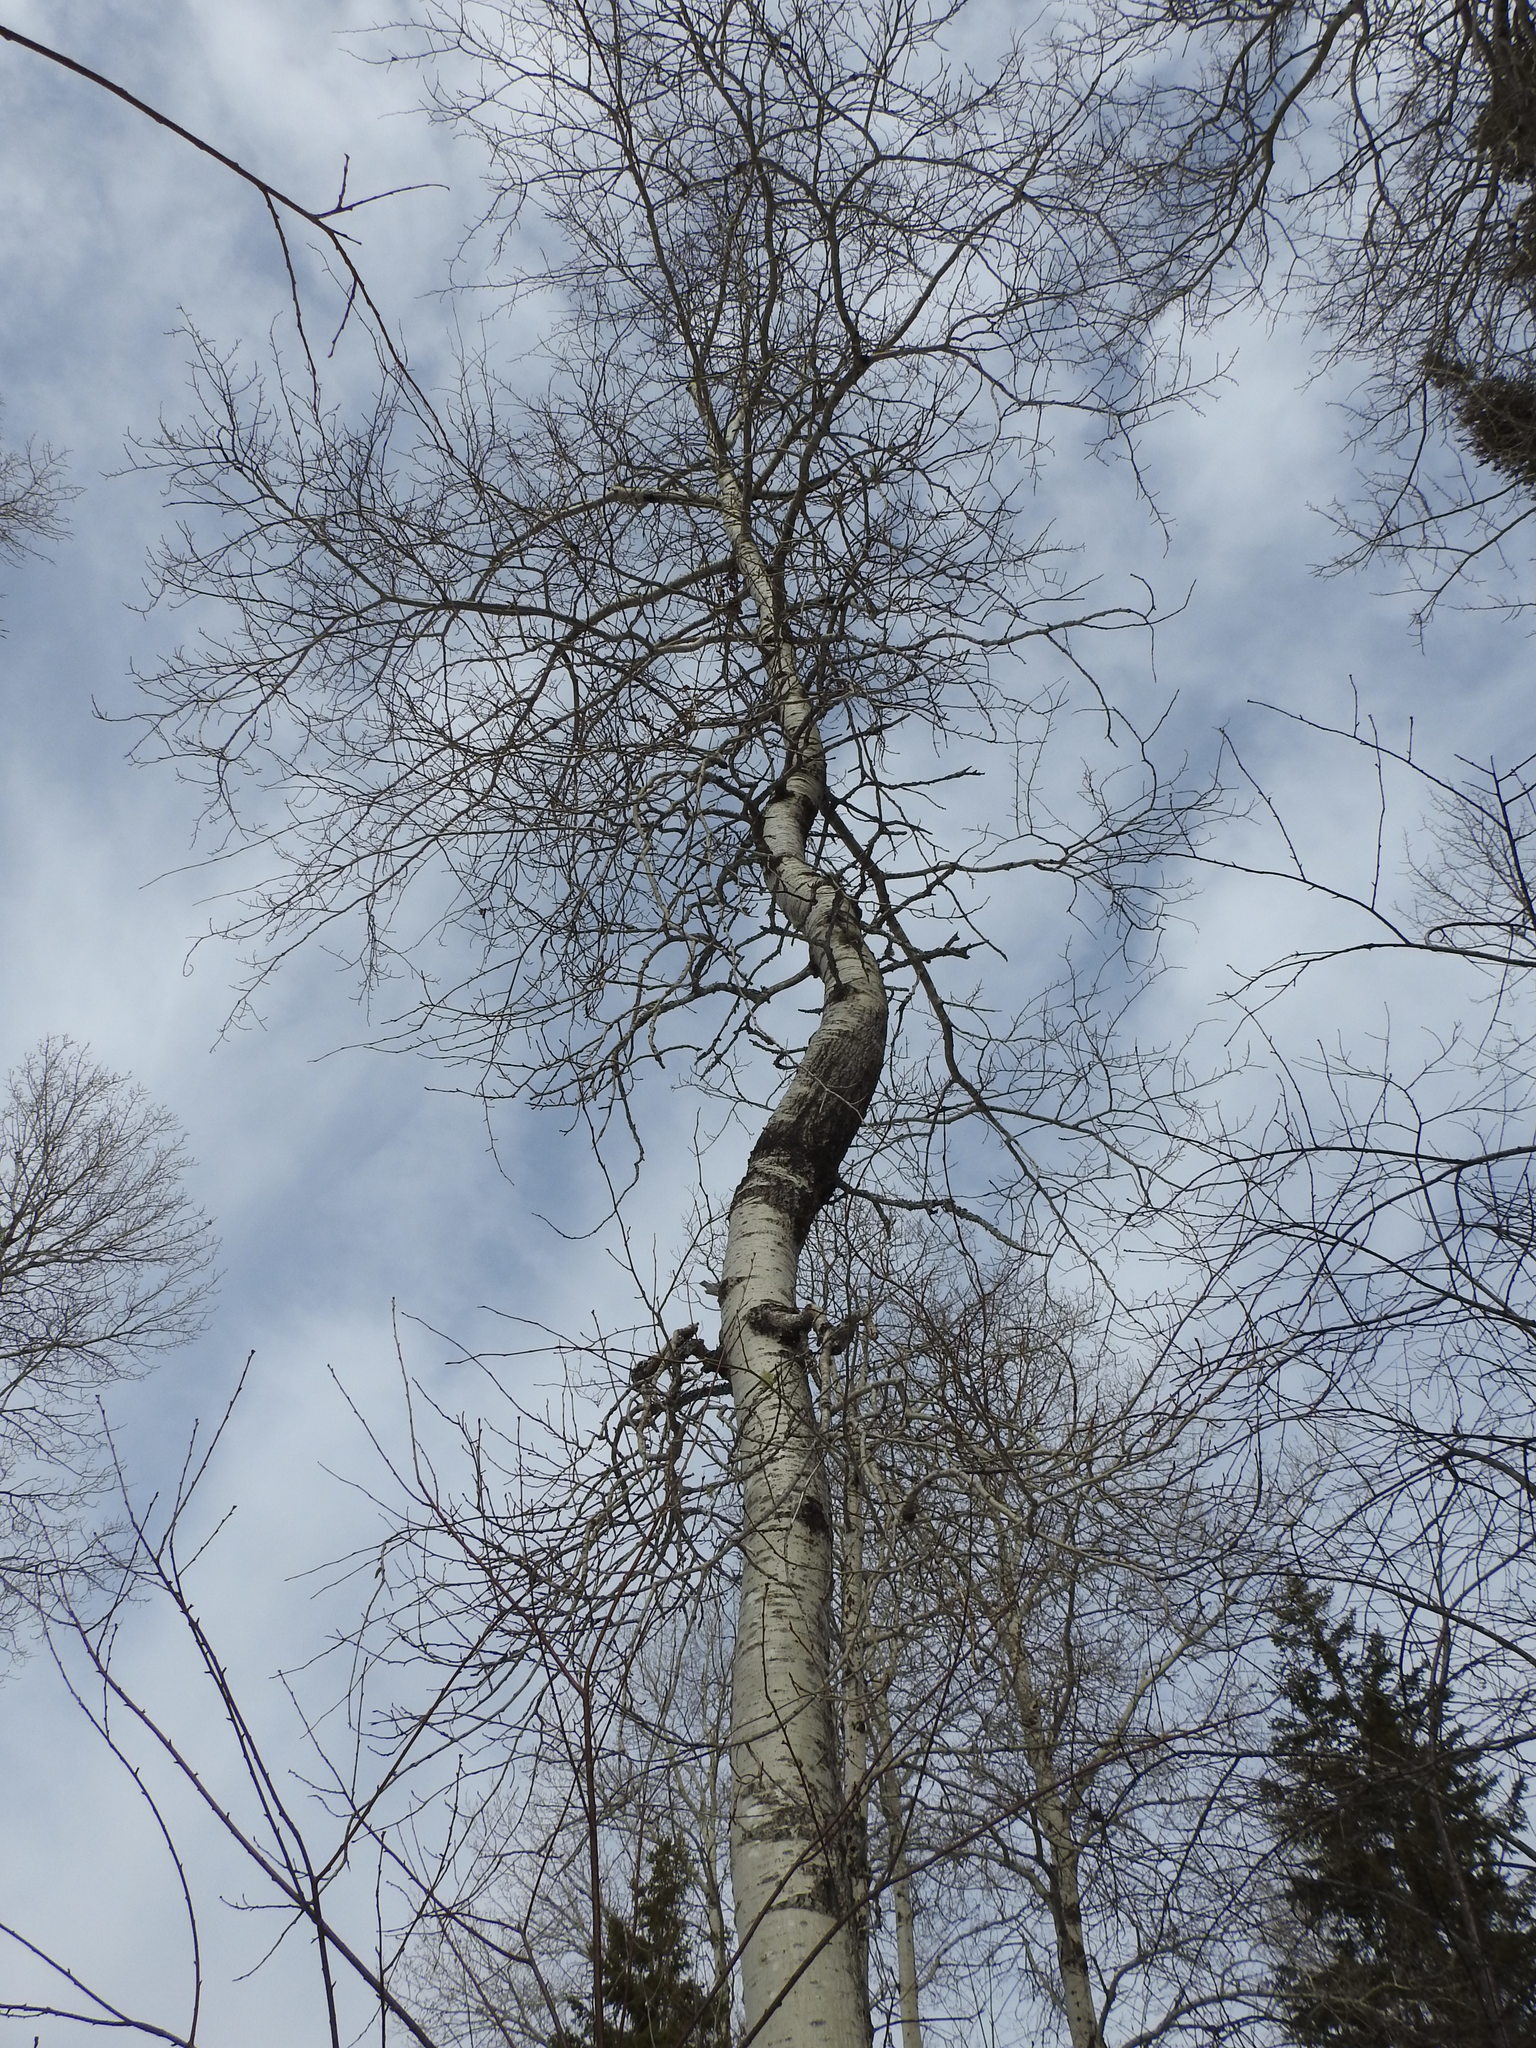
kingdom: Plantae
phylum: Tracheophyta
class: Magnoliopsida
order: Malpighiales
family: Salicaceae
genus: Populus
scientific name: Populus tremuloides
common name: Quaking aspen
